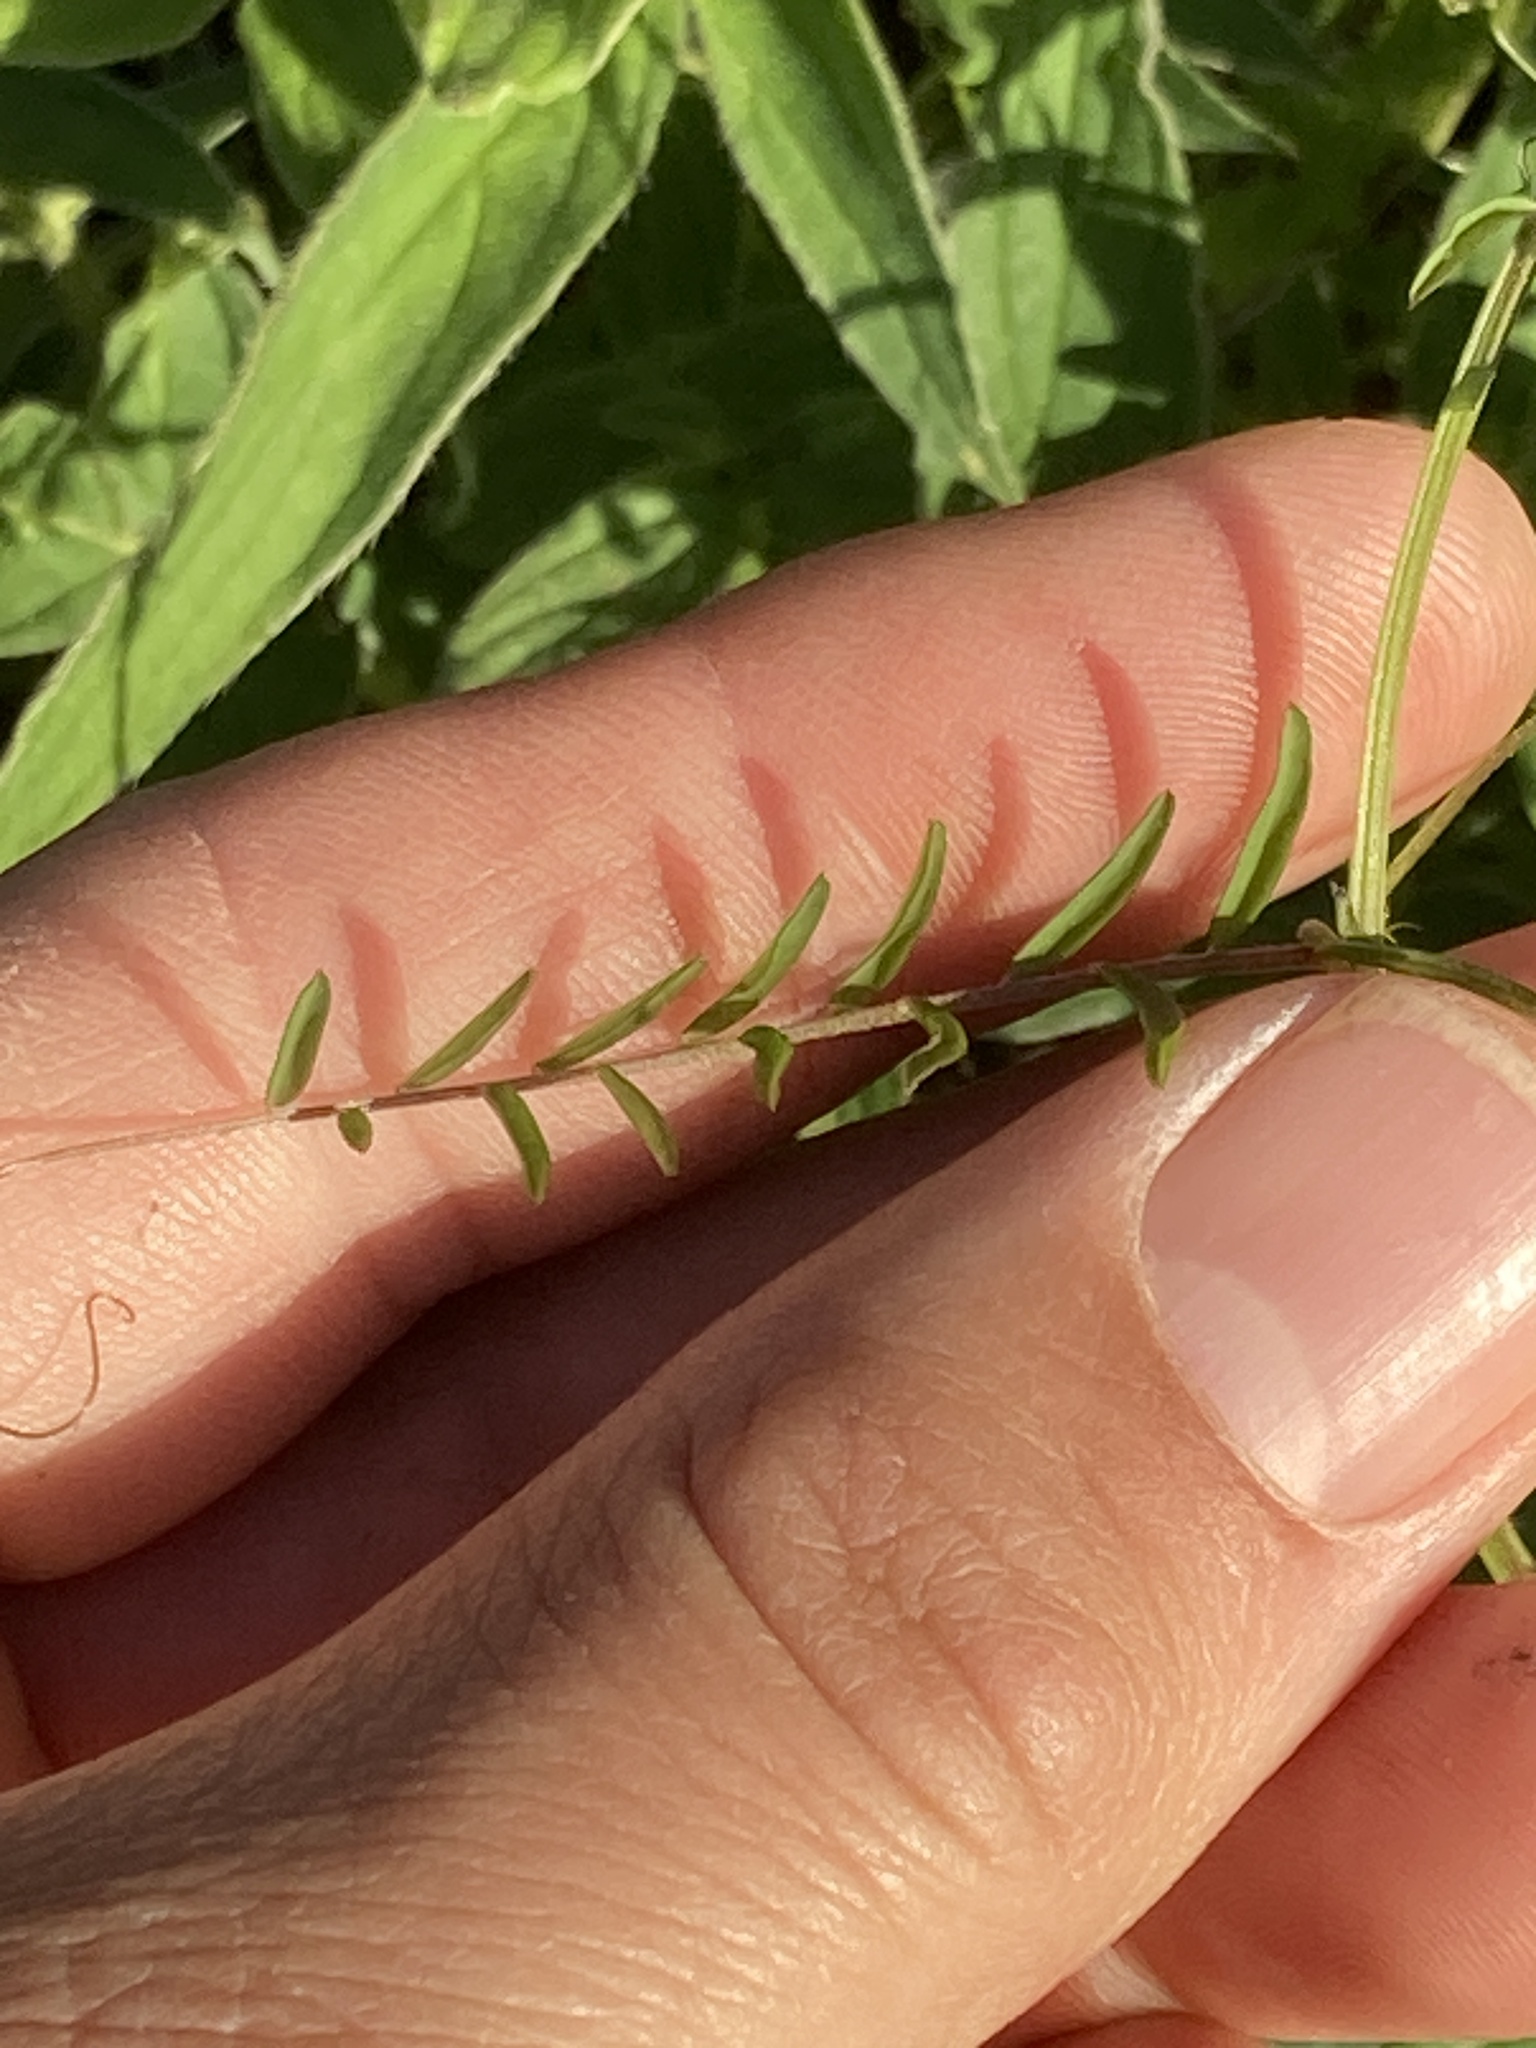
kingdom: Plantae
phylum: Tracheophyta
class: Magnoliopsida
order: Fabales
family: Fabaceae
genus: Vicia
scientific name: Vicia hirsuta
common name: Tiny vetch
